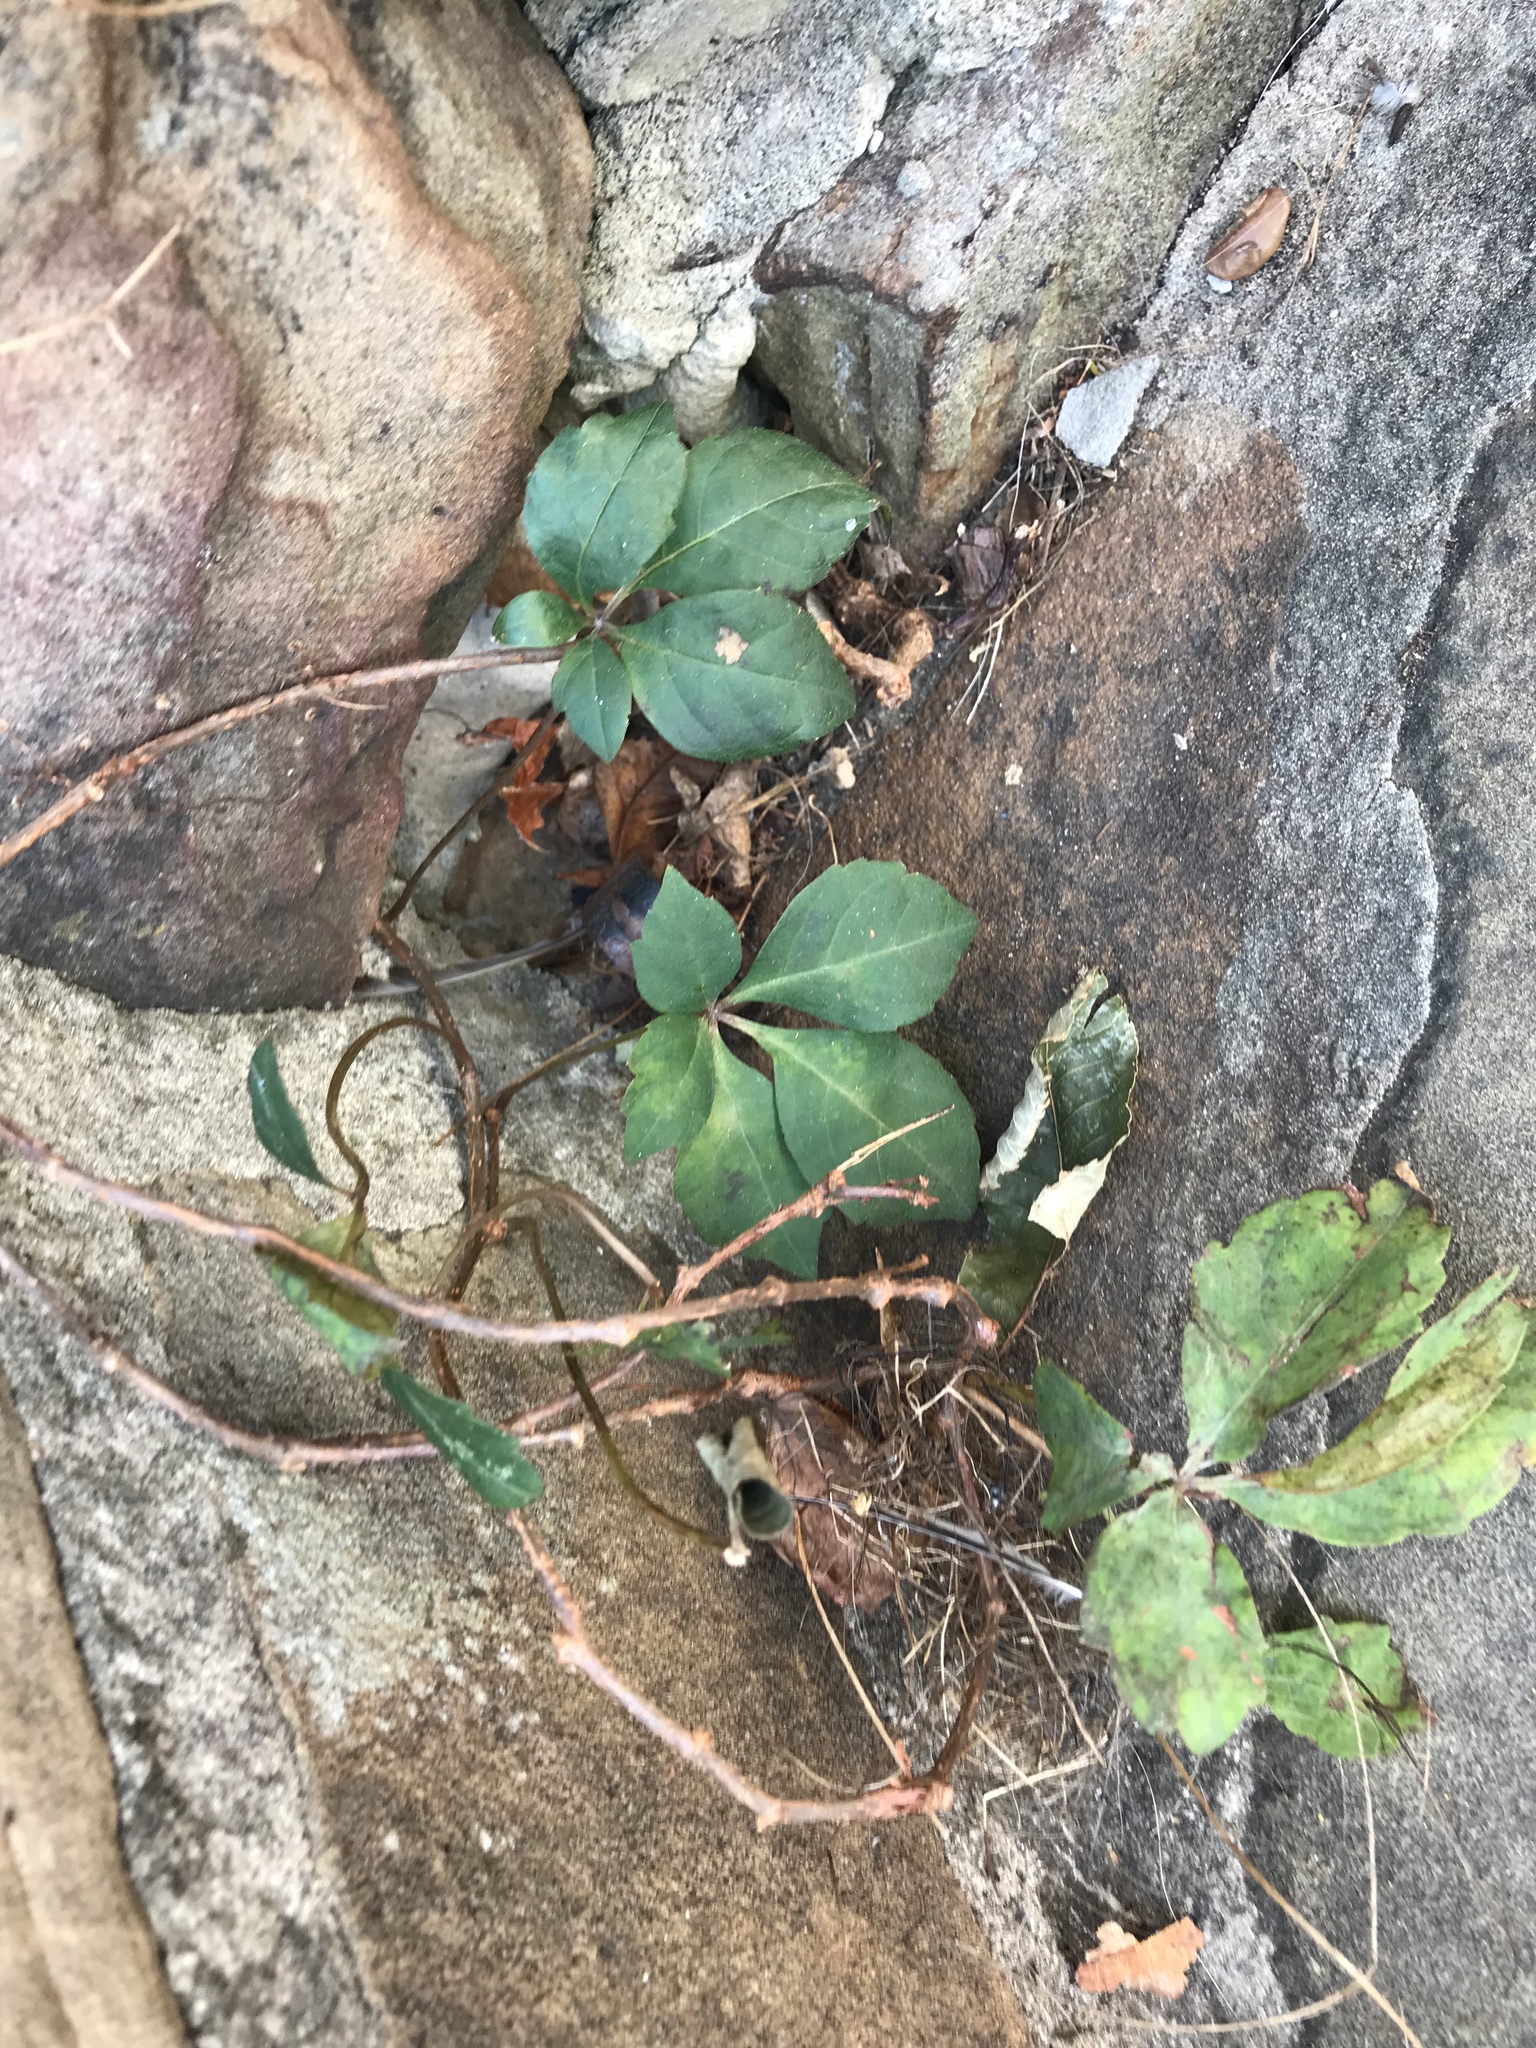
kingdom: Plantae
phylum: Tracheophyta
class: Magnoliopsida
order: Vitales
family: Vitaceae
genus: Parthenocissus
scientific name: Parthenocissus quinquefolia
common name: Virginia-creeper
